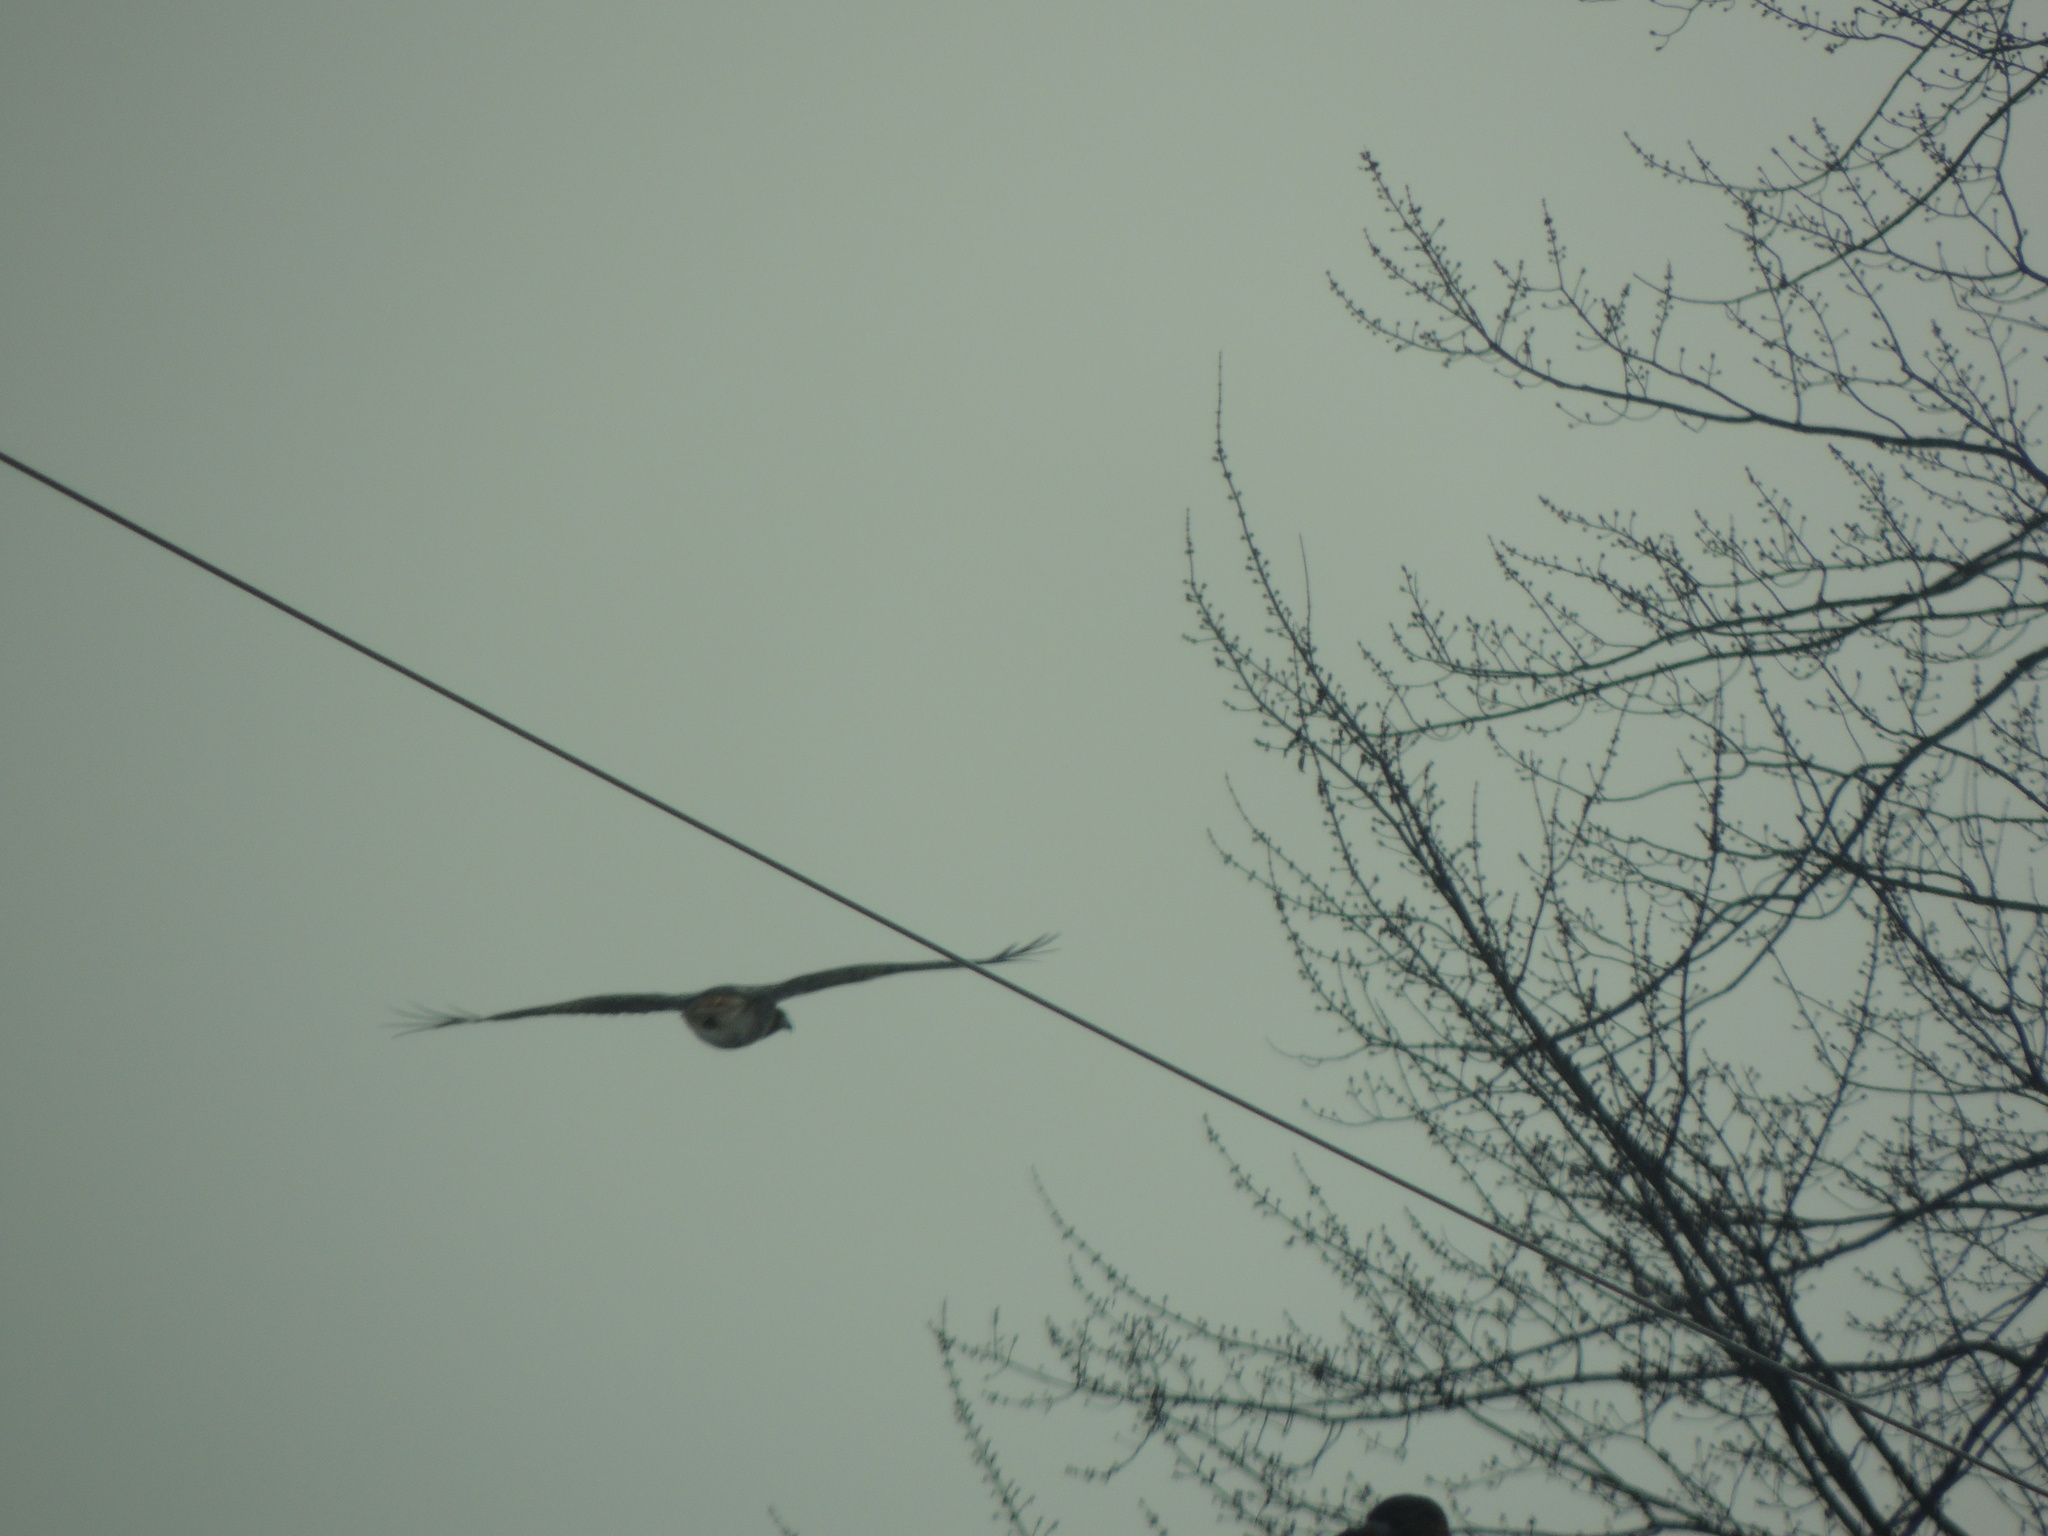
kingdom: Animalia
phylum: Chordata
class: Aves
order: Accipitriformes
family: Accipitridae
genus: Buteo
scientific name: Buteo jamaicensis
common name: Red-tailed hawk
